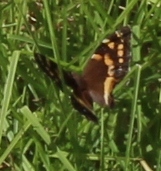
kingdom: Animalia
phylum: Arthropoda
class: Insecta
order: Lepidoptera
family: Nymphalidae
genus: Meneris
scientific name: Meneris Aeropetes tulbaghia
